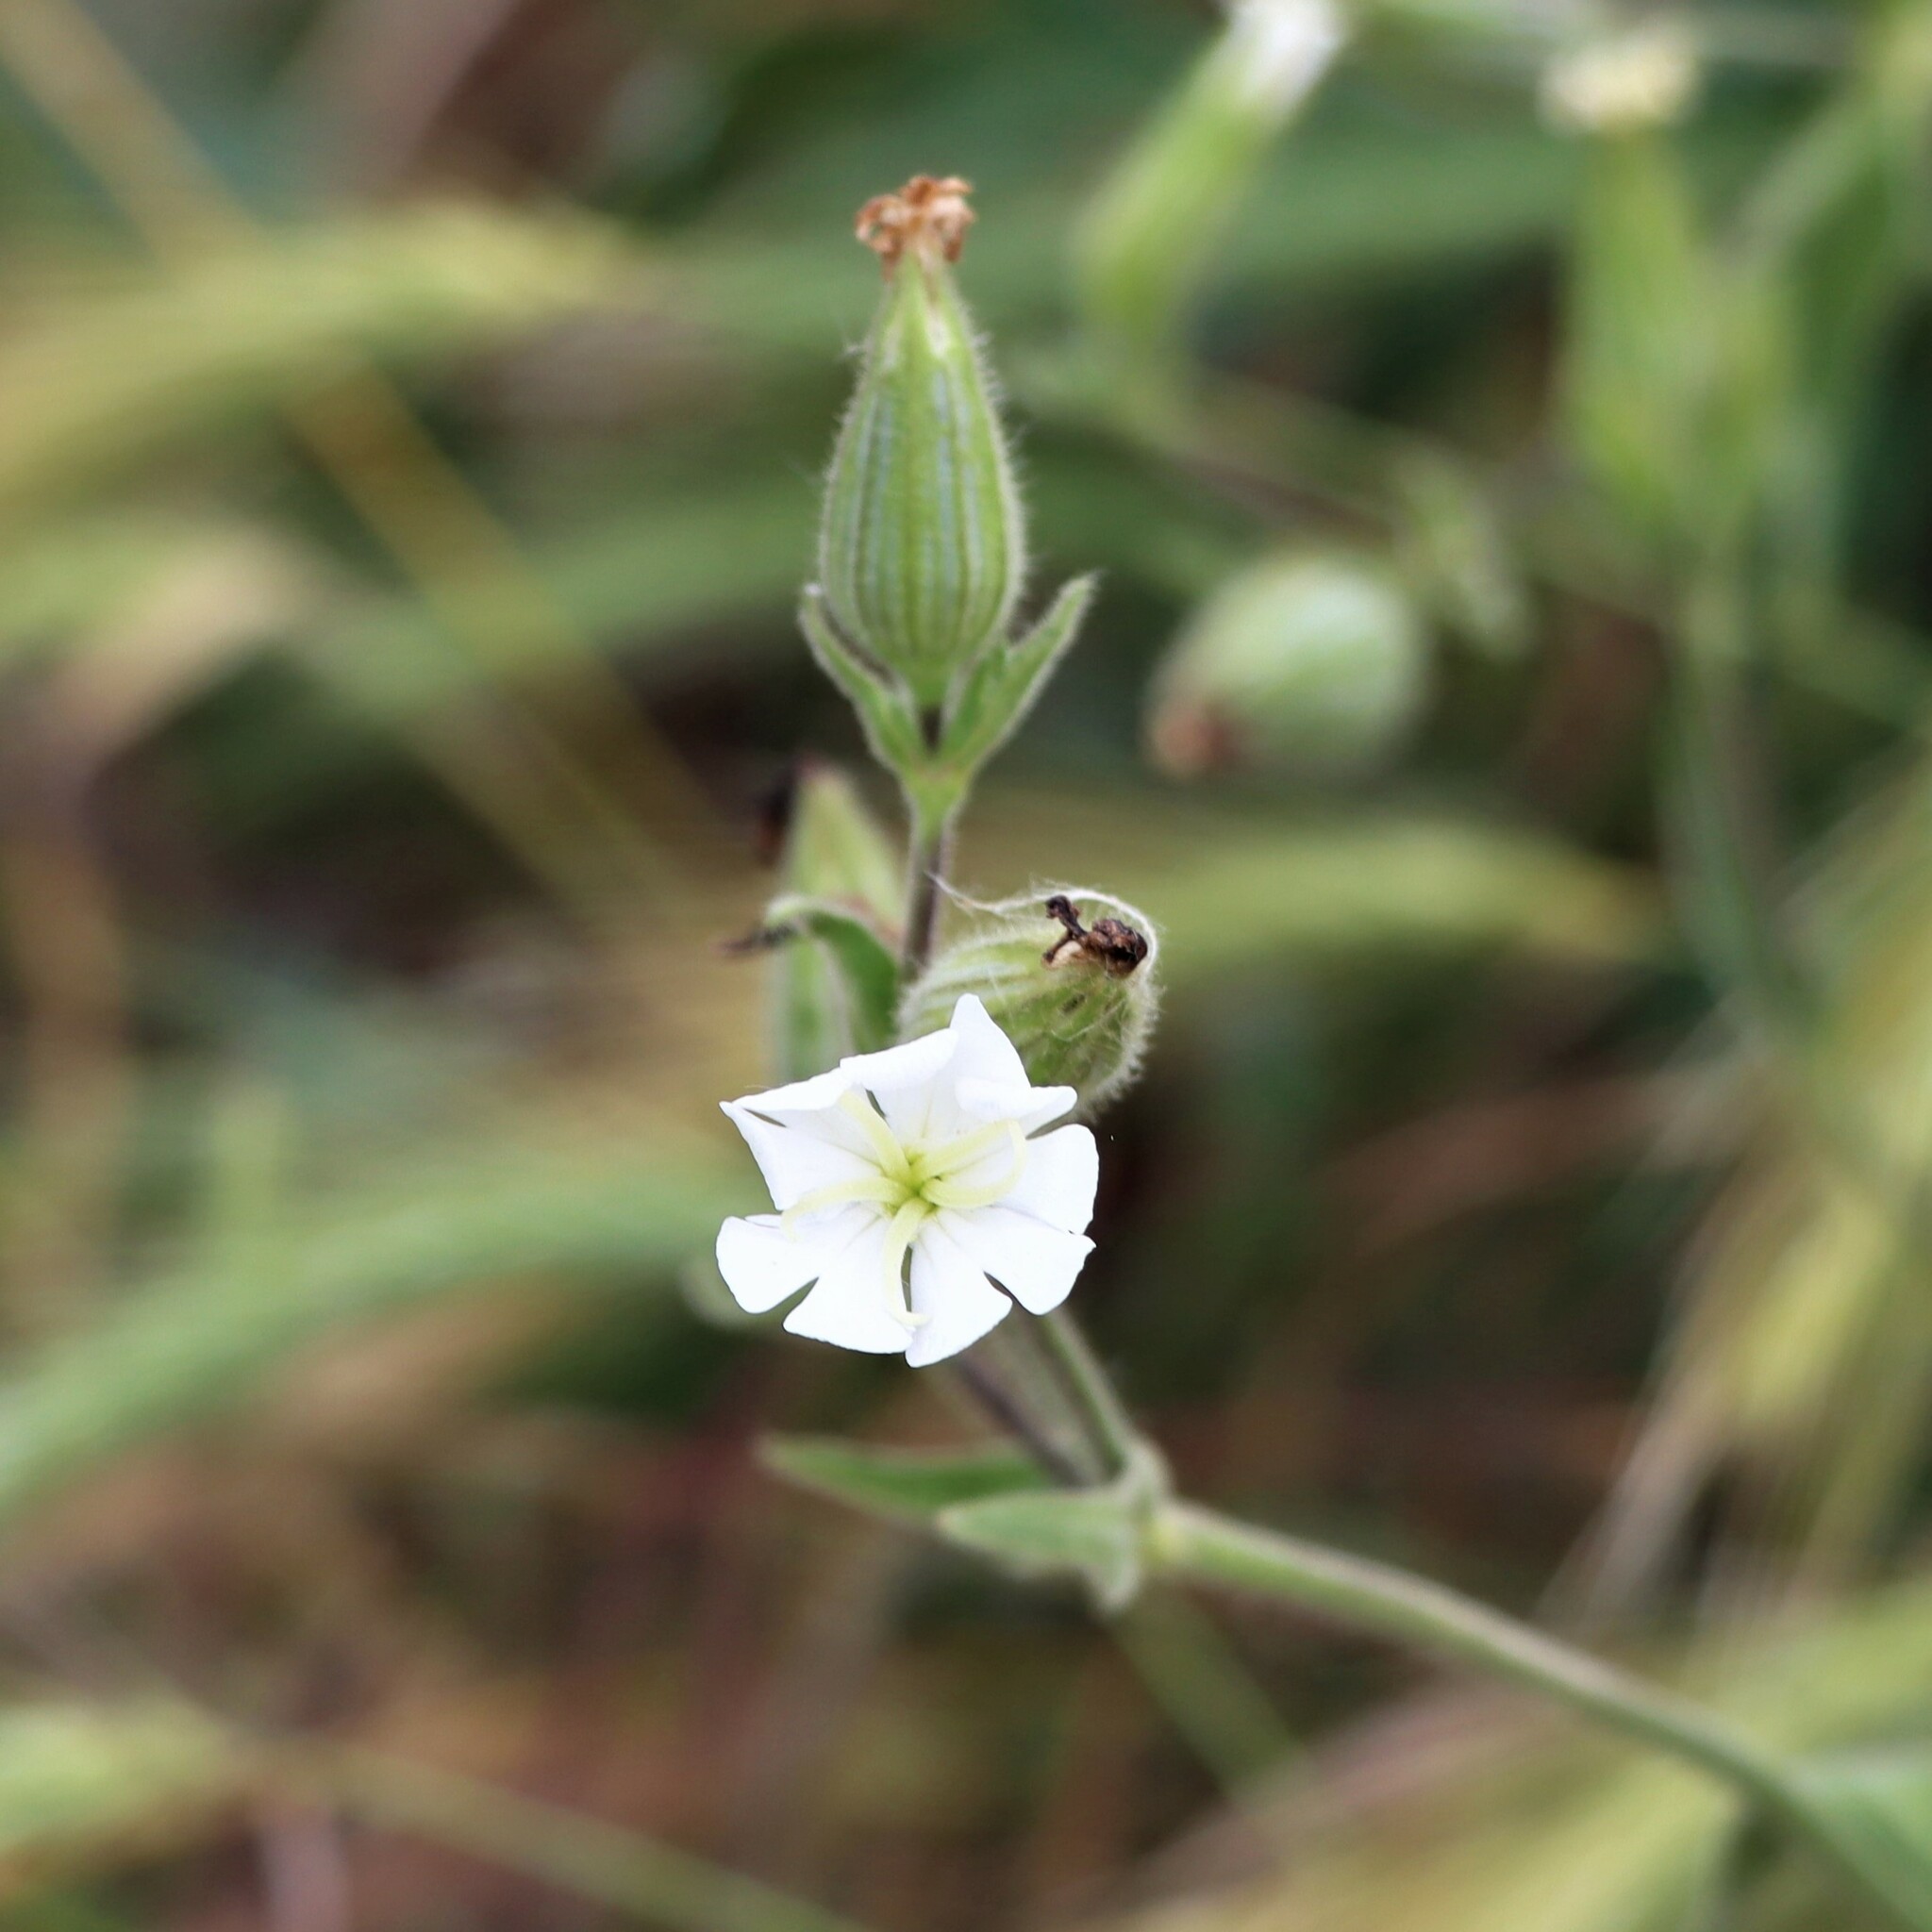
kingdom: Plantae
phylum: Tracheophyta
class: Magnoliopsida
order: Caryophyllales
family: Caryophyllaceae
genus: Silene
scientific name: Silene latifolia
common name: White campion
